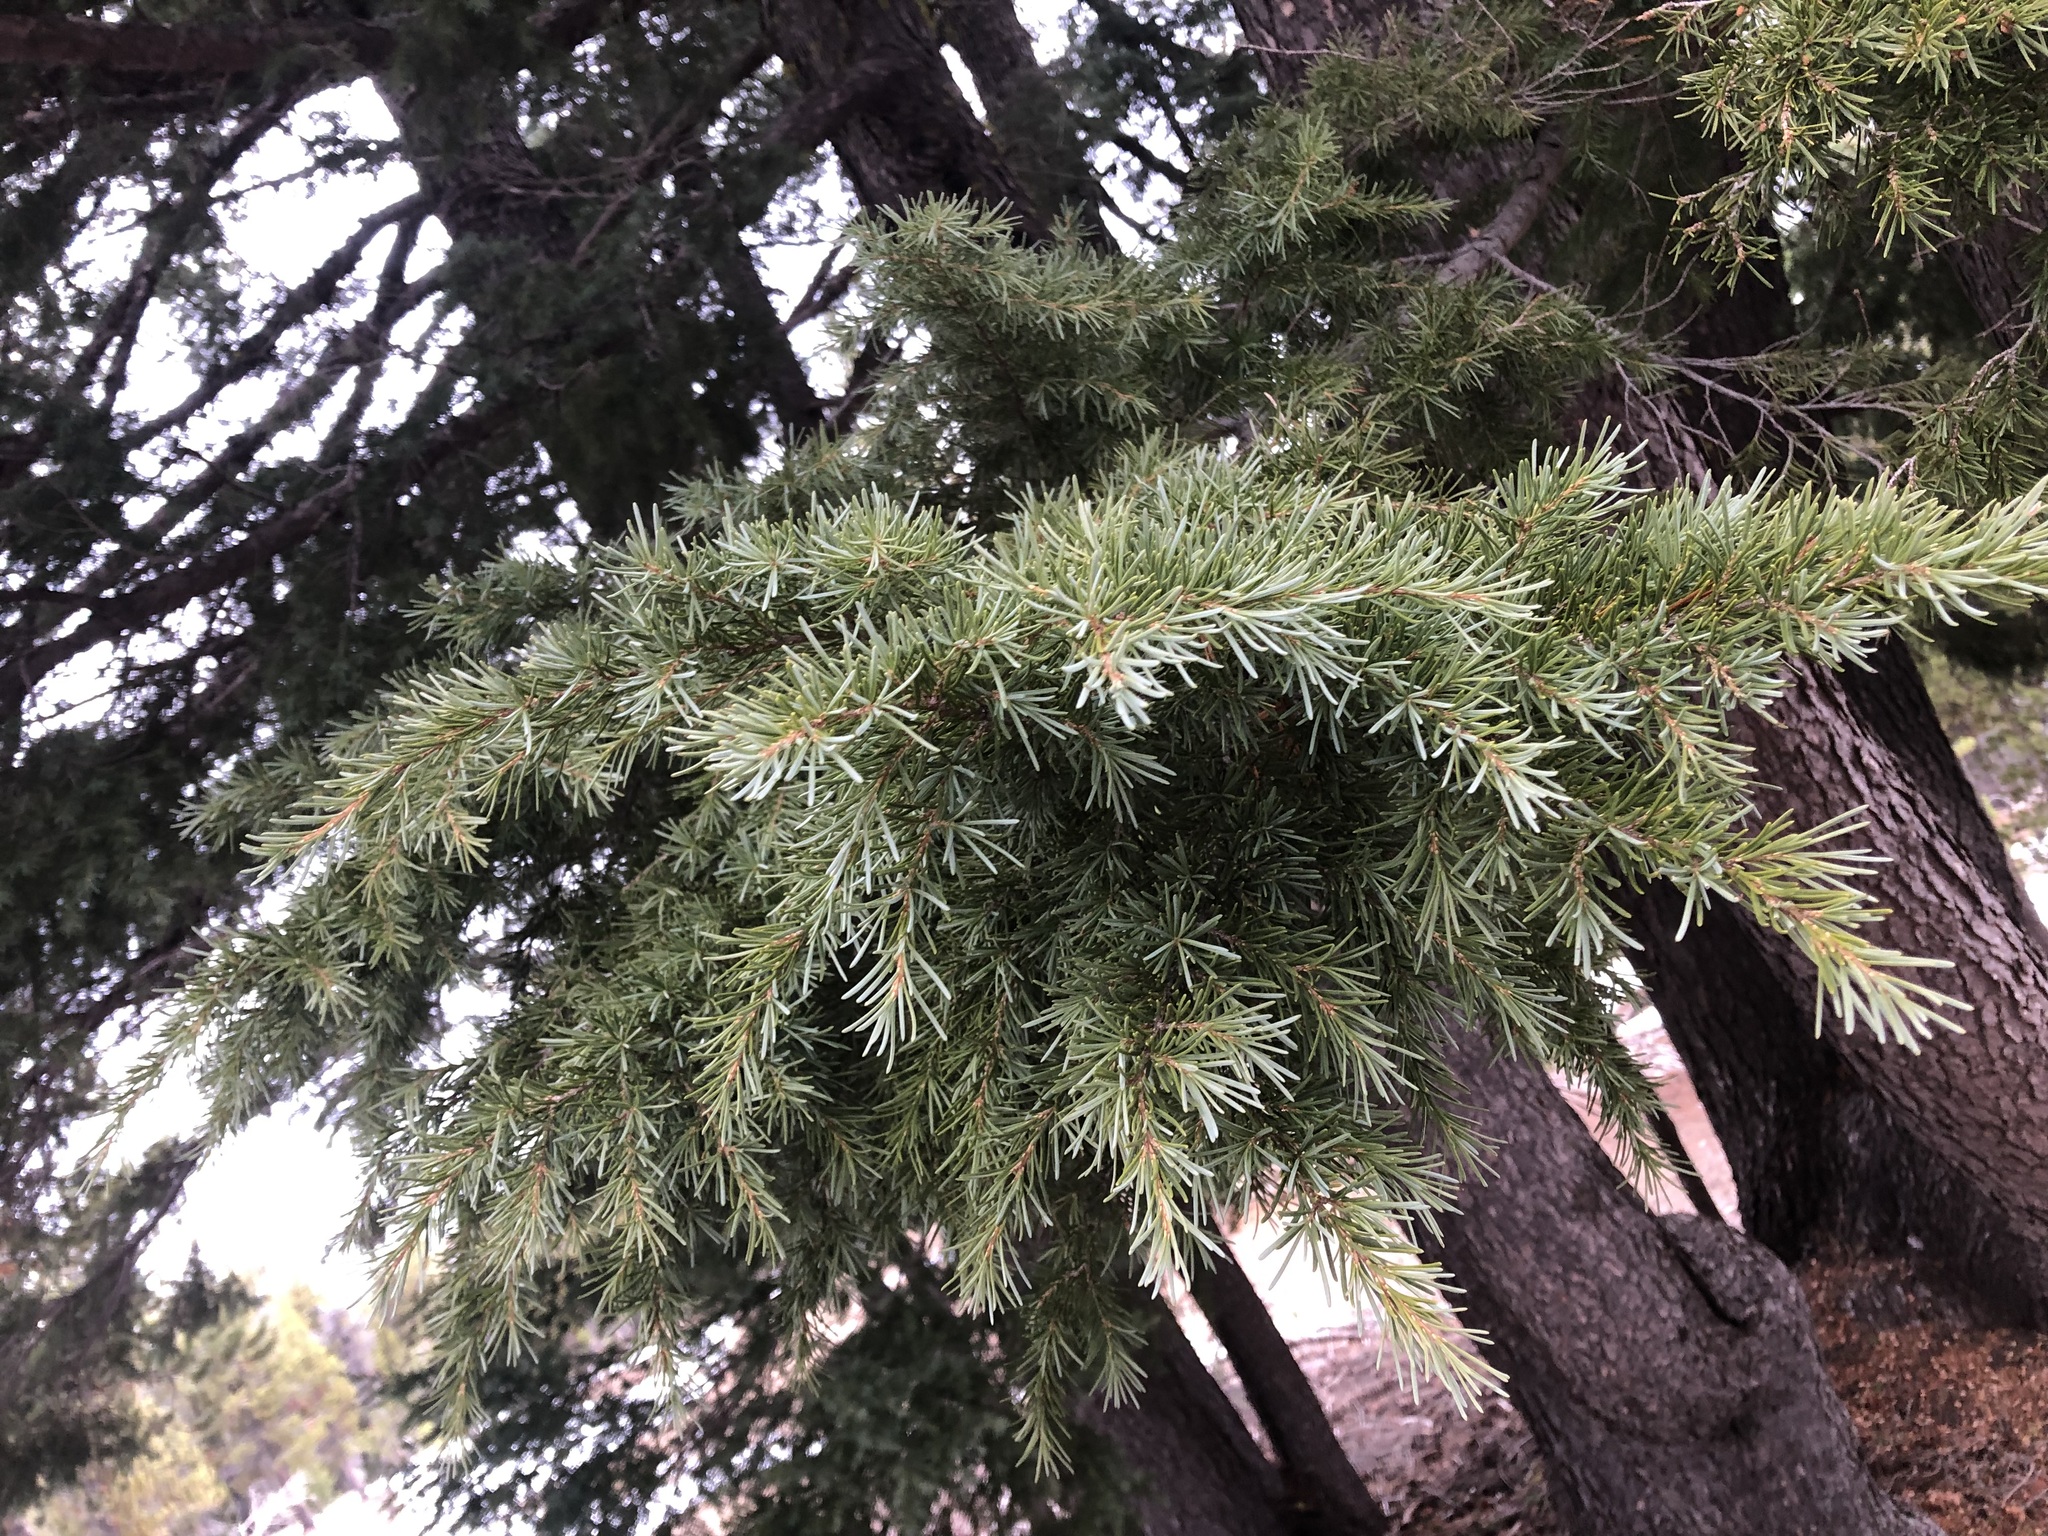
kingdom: Plantae
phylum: Tracheophyta
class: Pinopsida
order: Pinales
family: Pinaceae
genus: Tsuga
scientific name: Tsuga mertensiana
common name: Mountain hemlock
